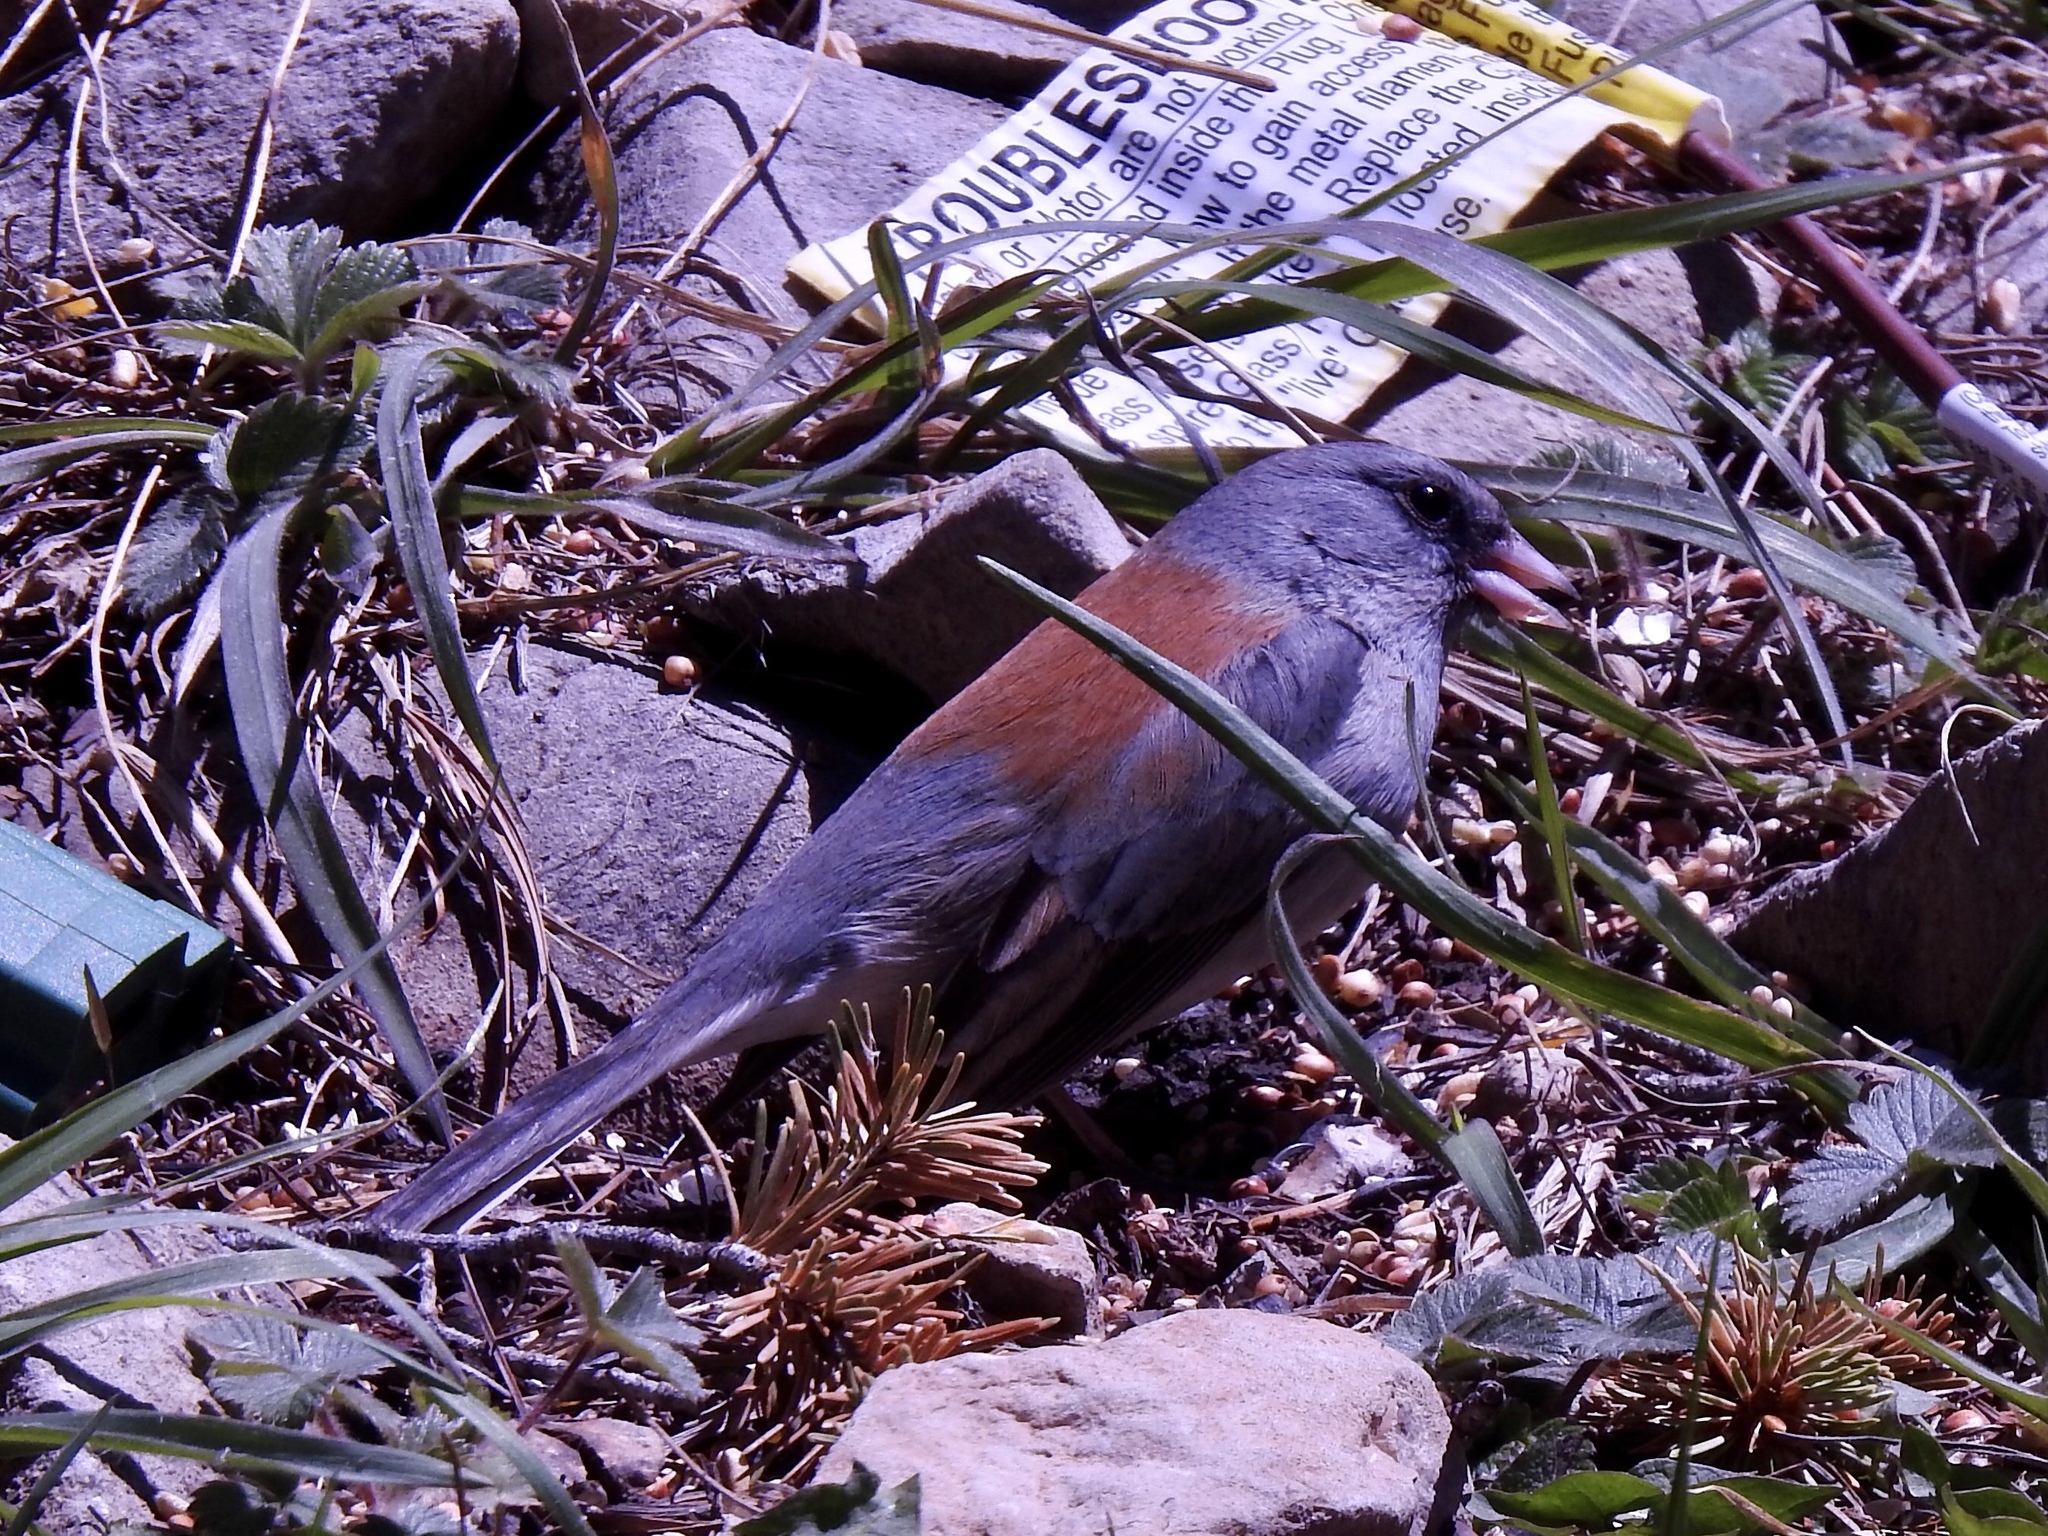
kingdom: Animalia
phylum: Chordata
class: Aves
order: Passeriformes
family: Passerellidae
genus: Junco
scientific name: Junco hyemalis
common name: Dark-eyed junco
